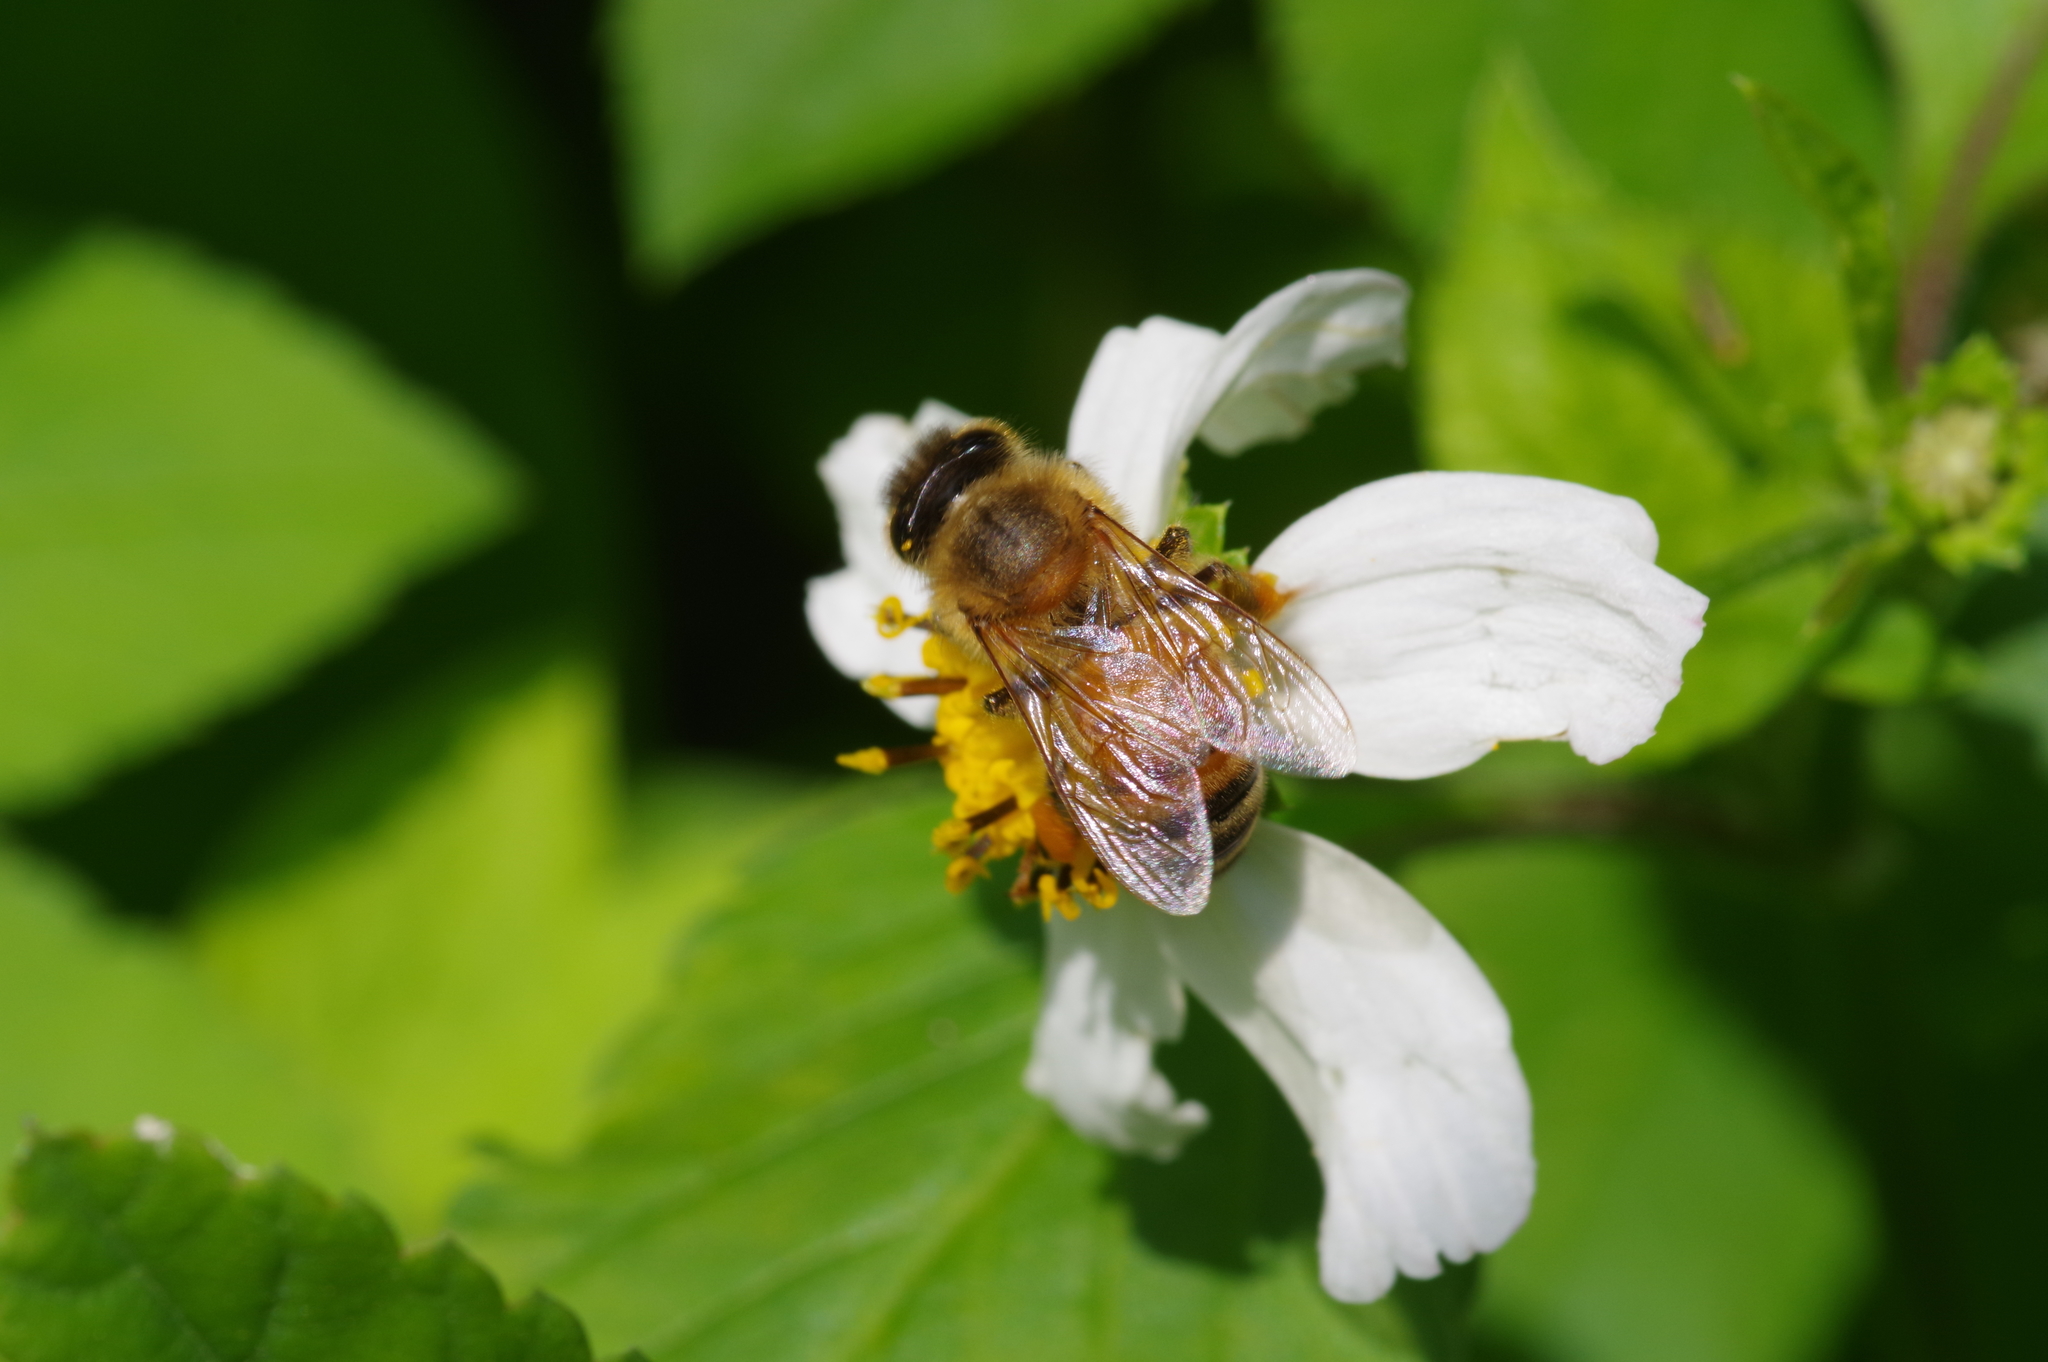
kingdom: Animalia
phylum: Arthropoda
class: Insecta
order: Hymenoptera
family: Apidae
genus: Apis
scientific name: Apis mellifera
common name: Honey bee
